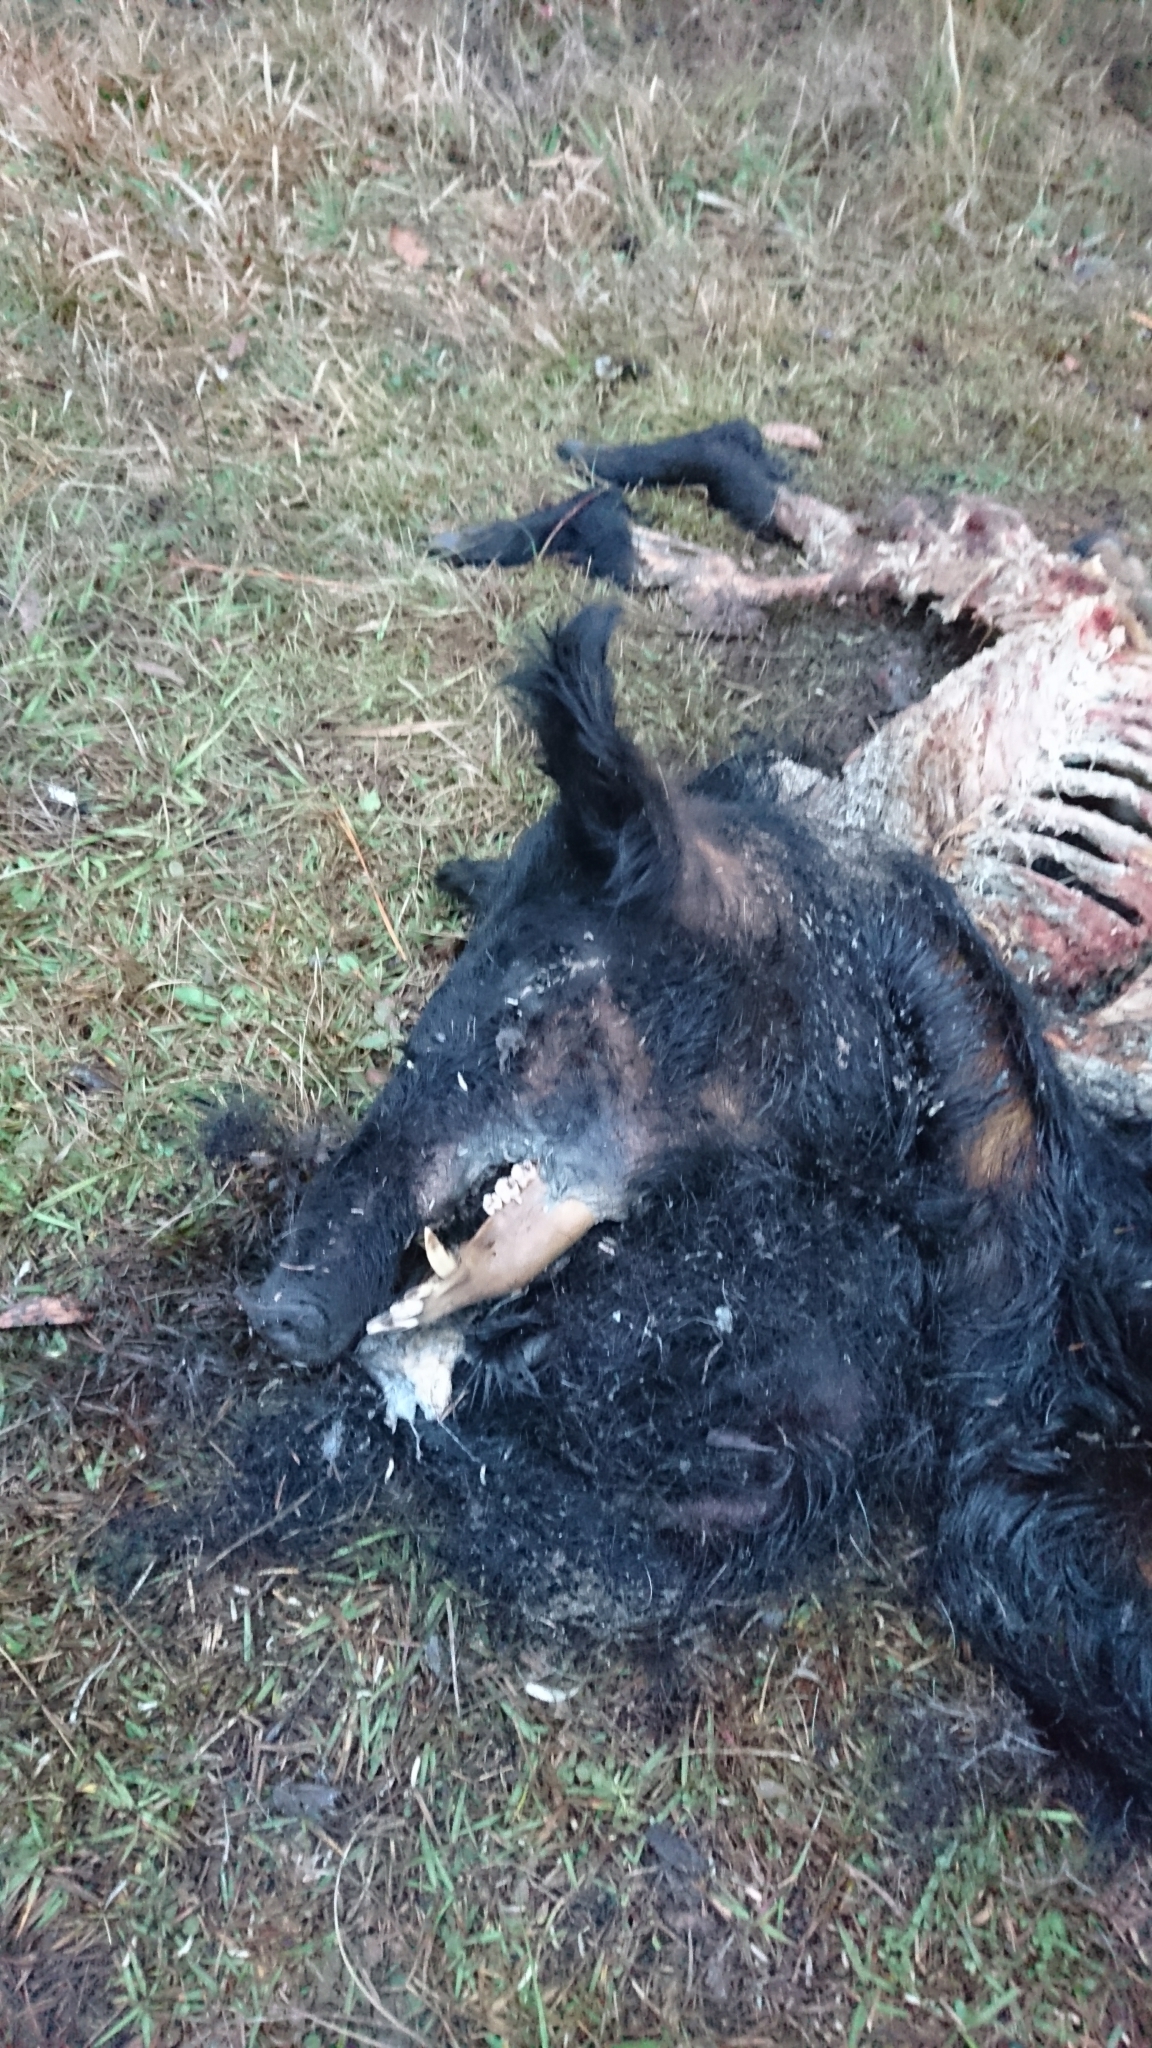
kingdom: Animalia
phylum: Chordata
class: Mammalia
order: Artiodactyla
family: Suidae
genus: Sus
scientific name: Sus scrofa
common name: Wild boar
